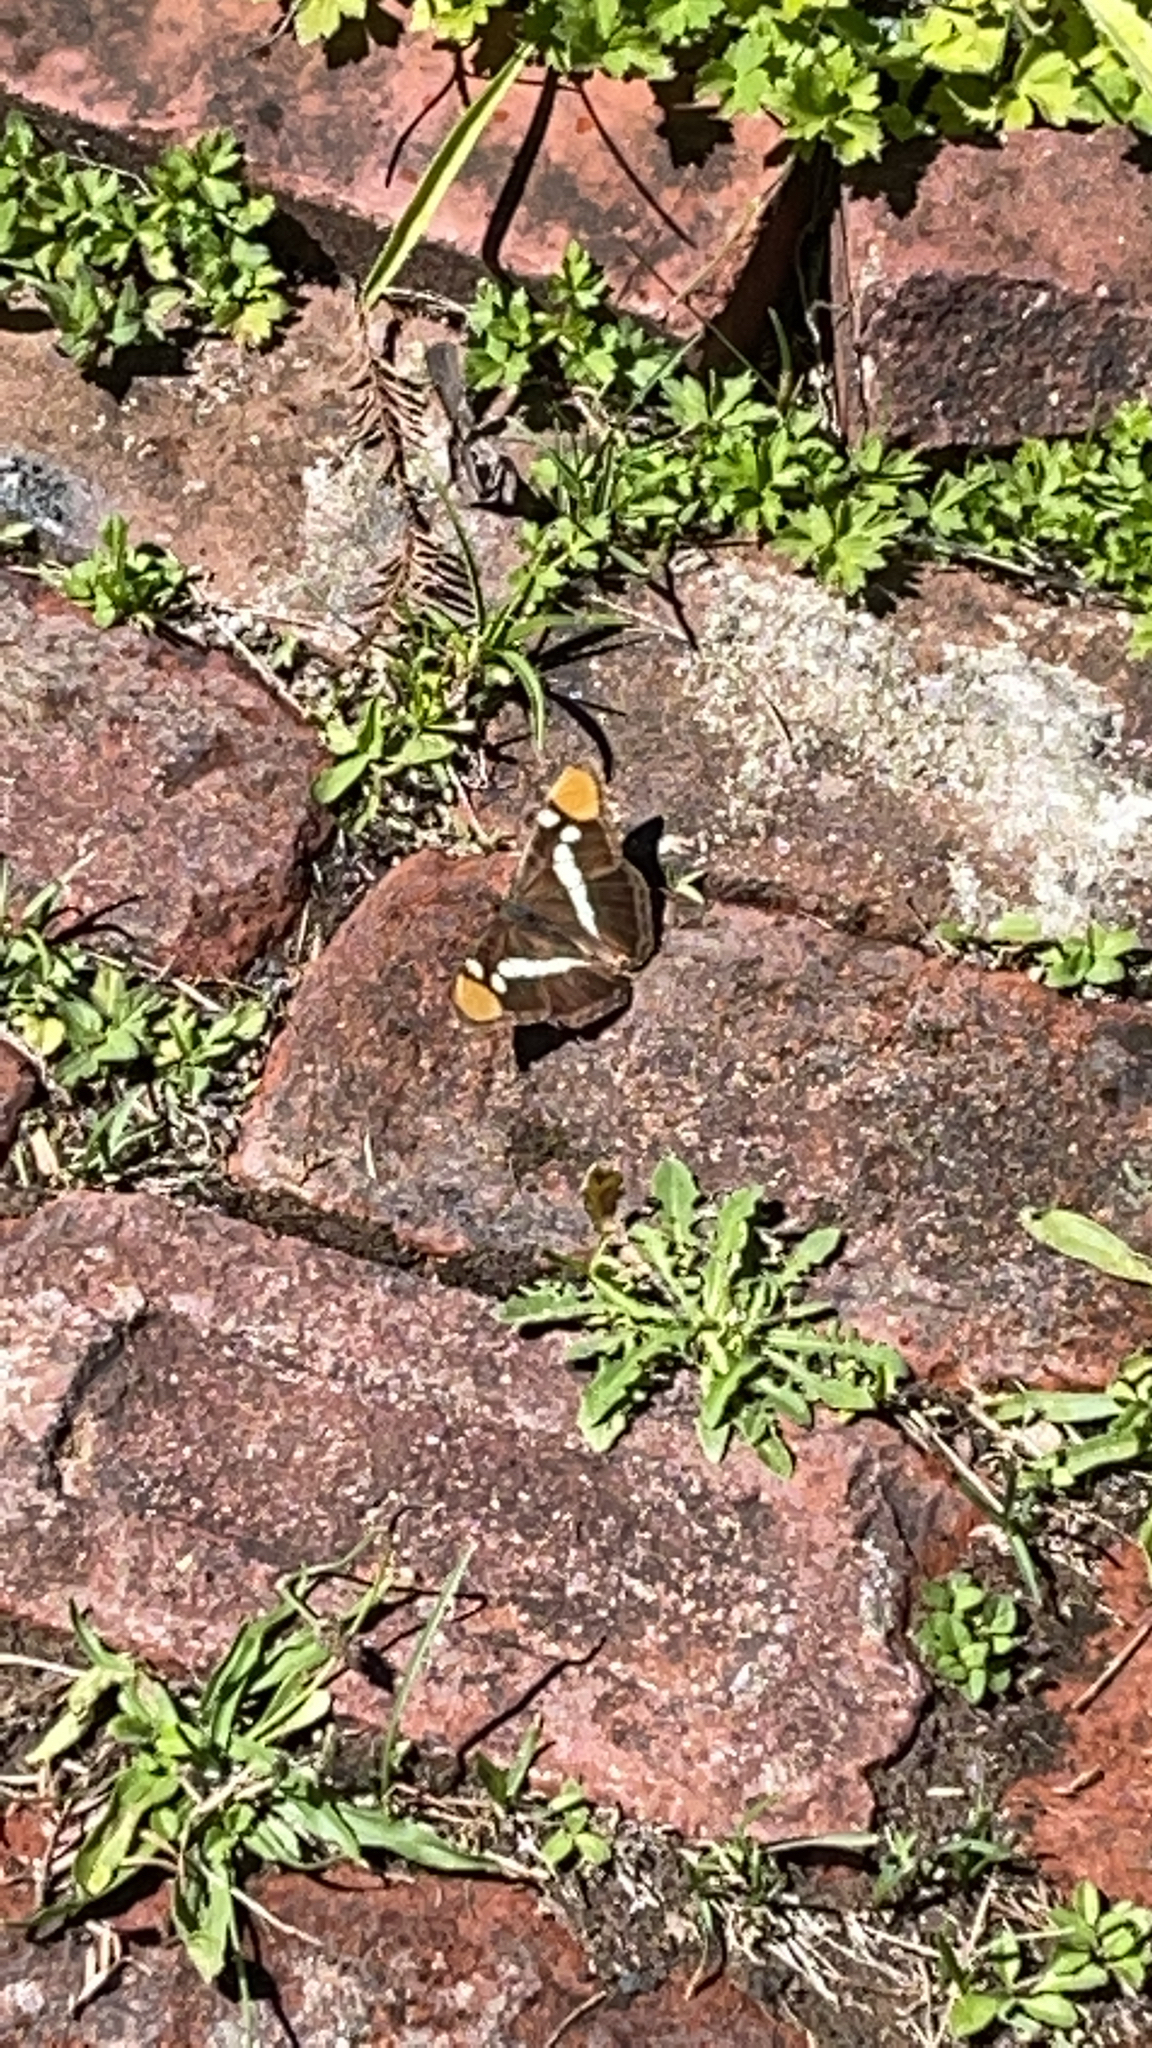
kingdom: Animalia
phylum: Arthropoda
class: Insecta
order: Lepidoptera
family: Nymphalidae
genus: Limenitis
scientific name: Limenitis bredowii
